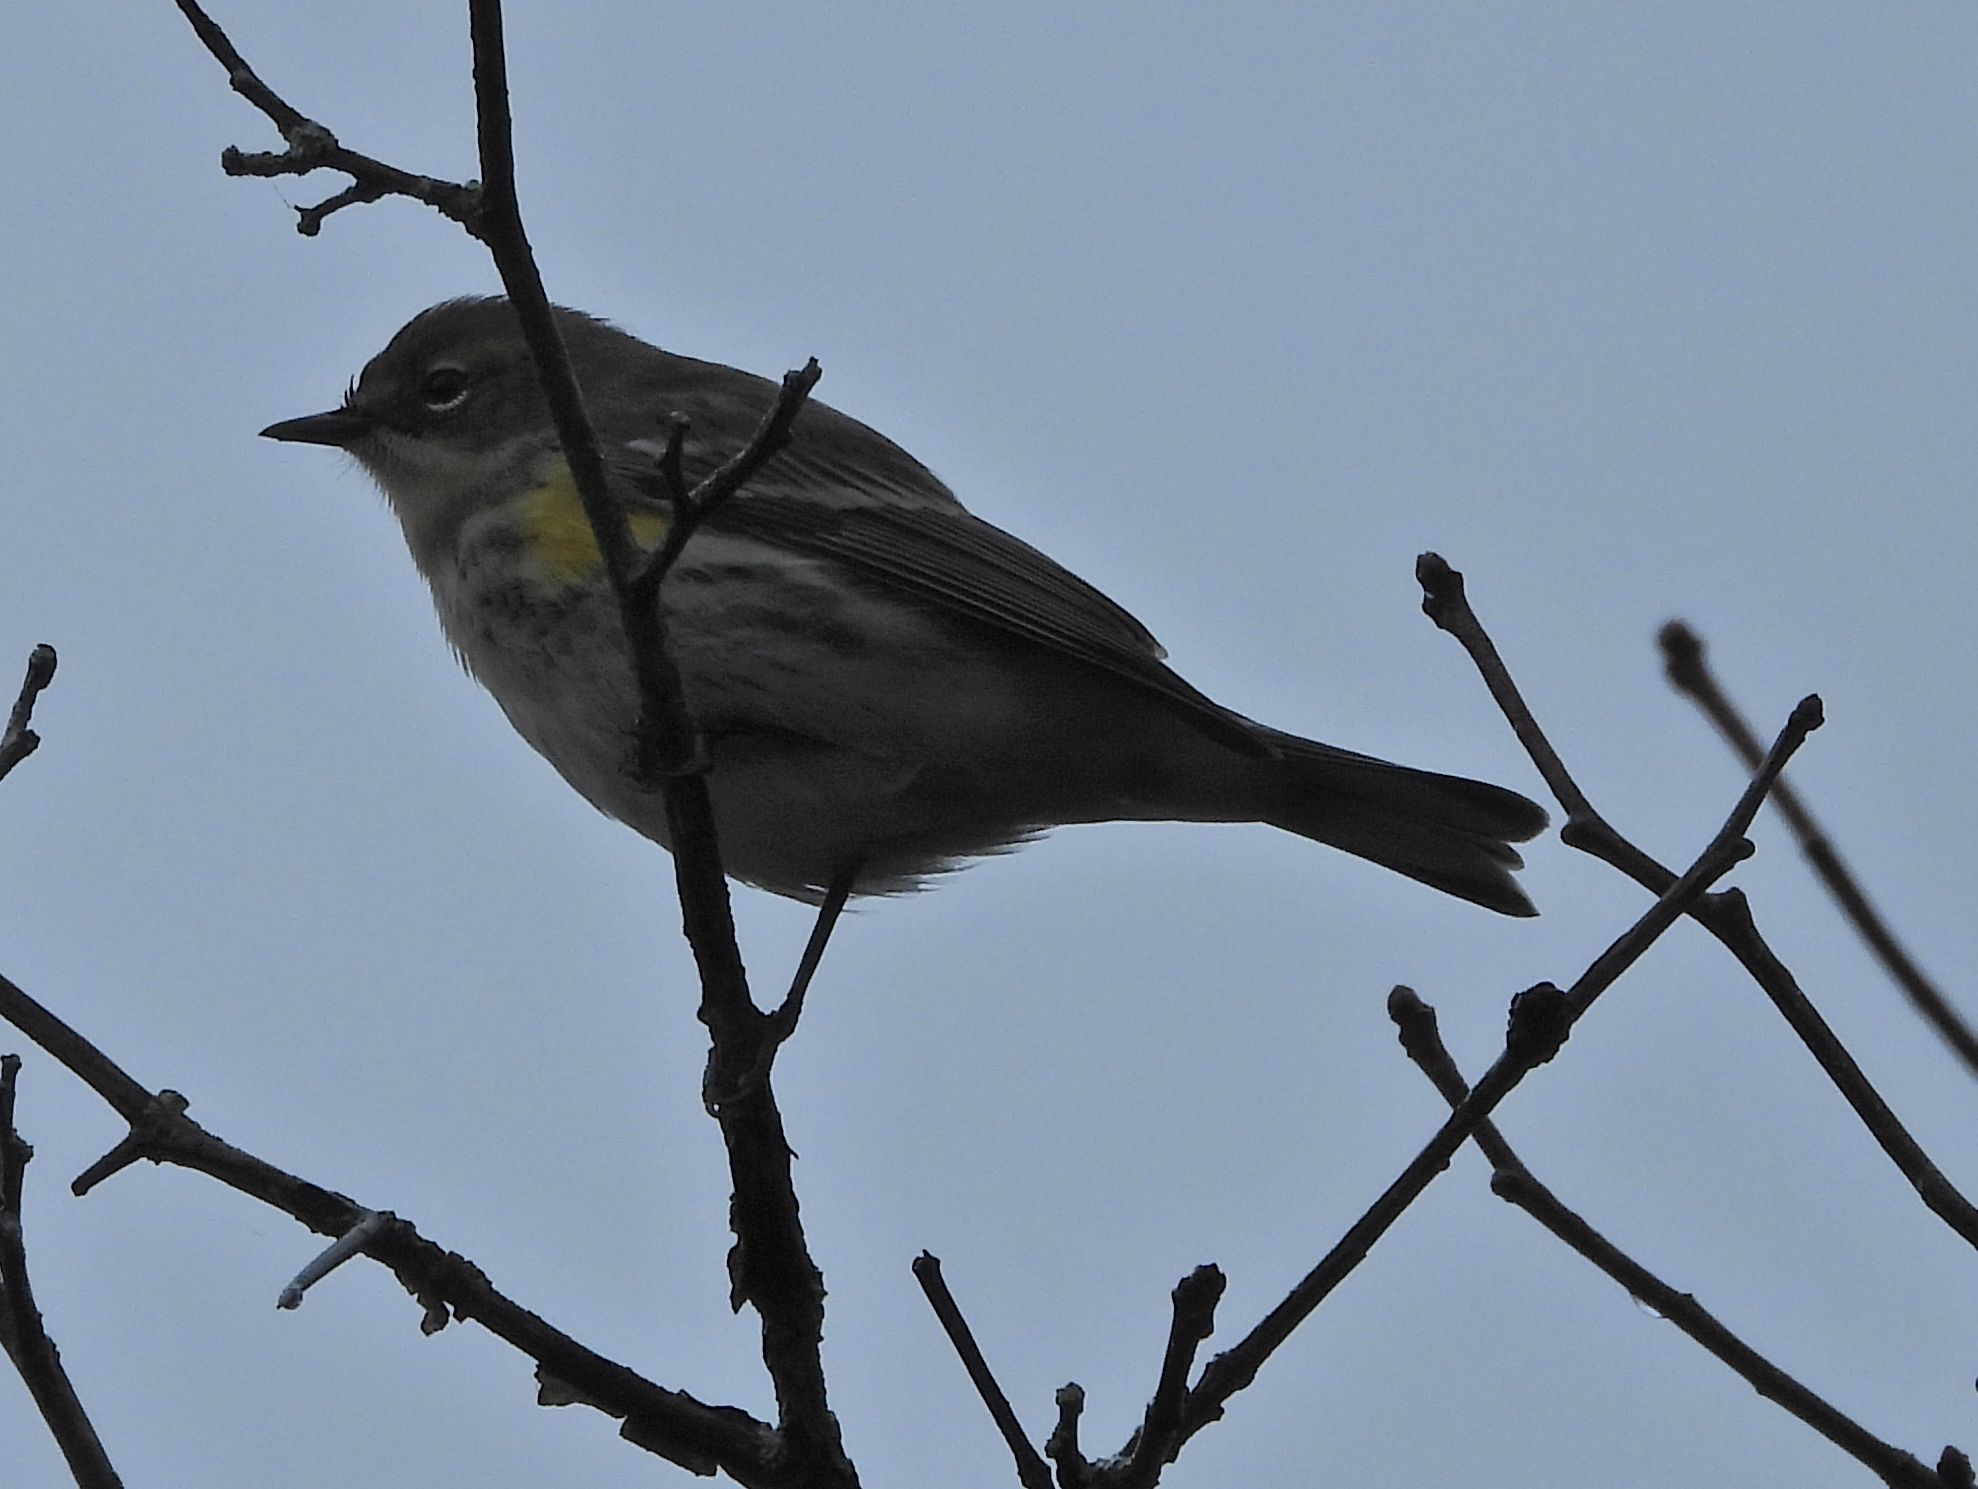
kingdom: Animalia
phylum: Chordata
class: Aves
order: Passeriformes
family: Parulidae
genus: Setophaga
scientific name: Setophaga coronata
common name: Myrtle warbler
